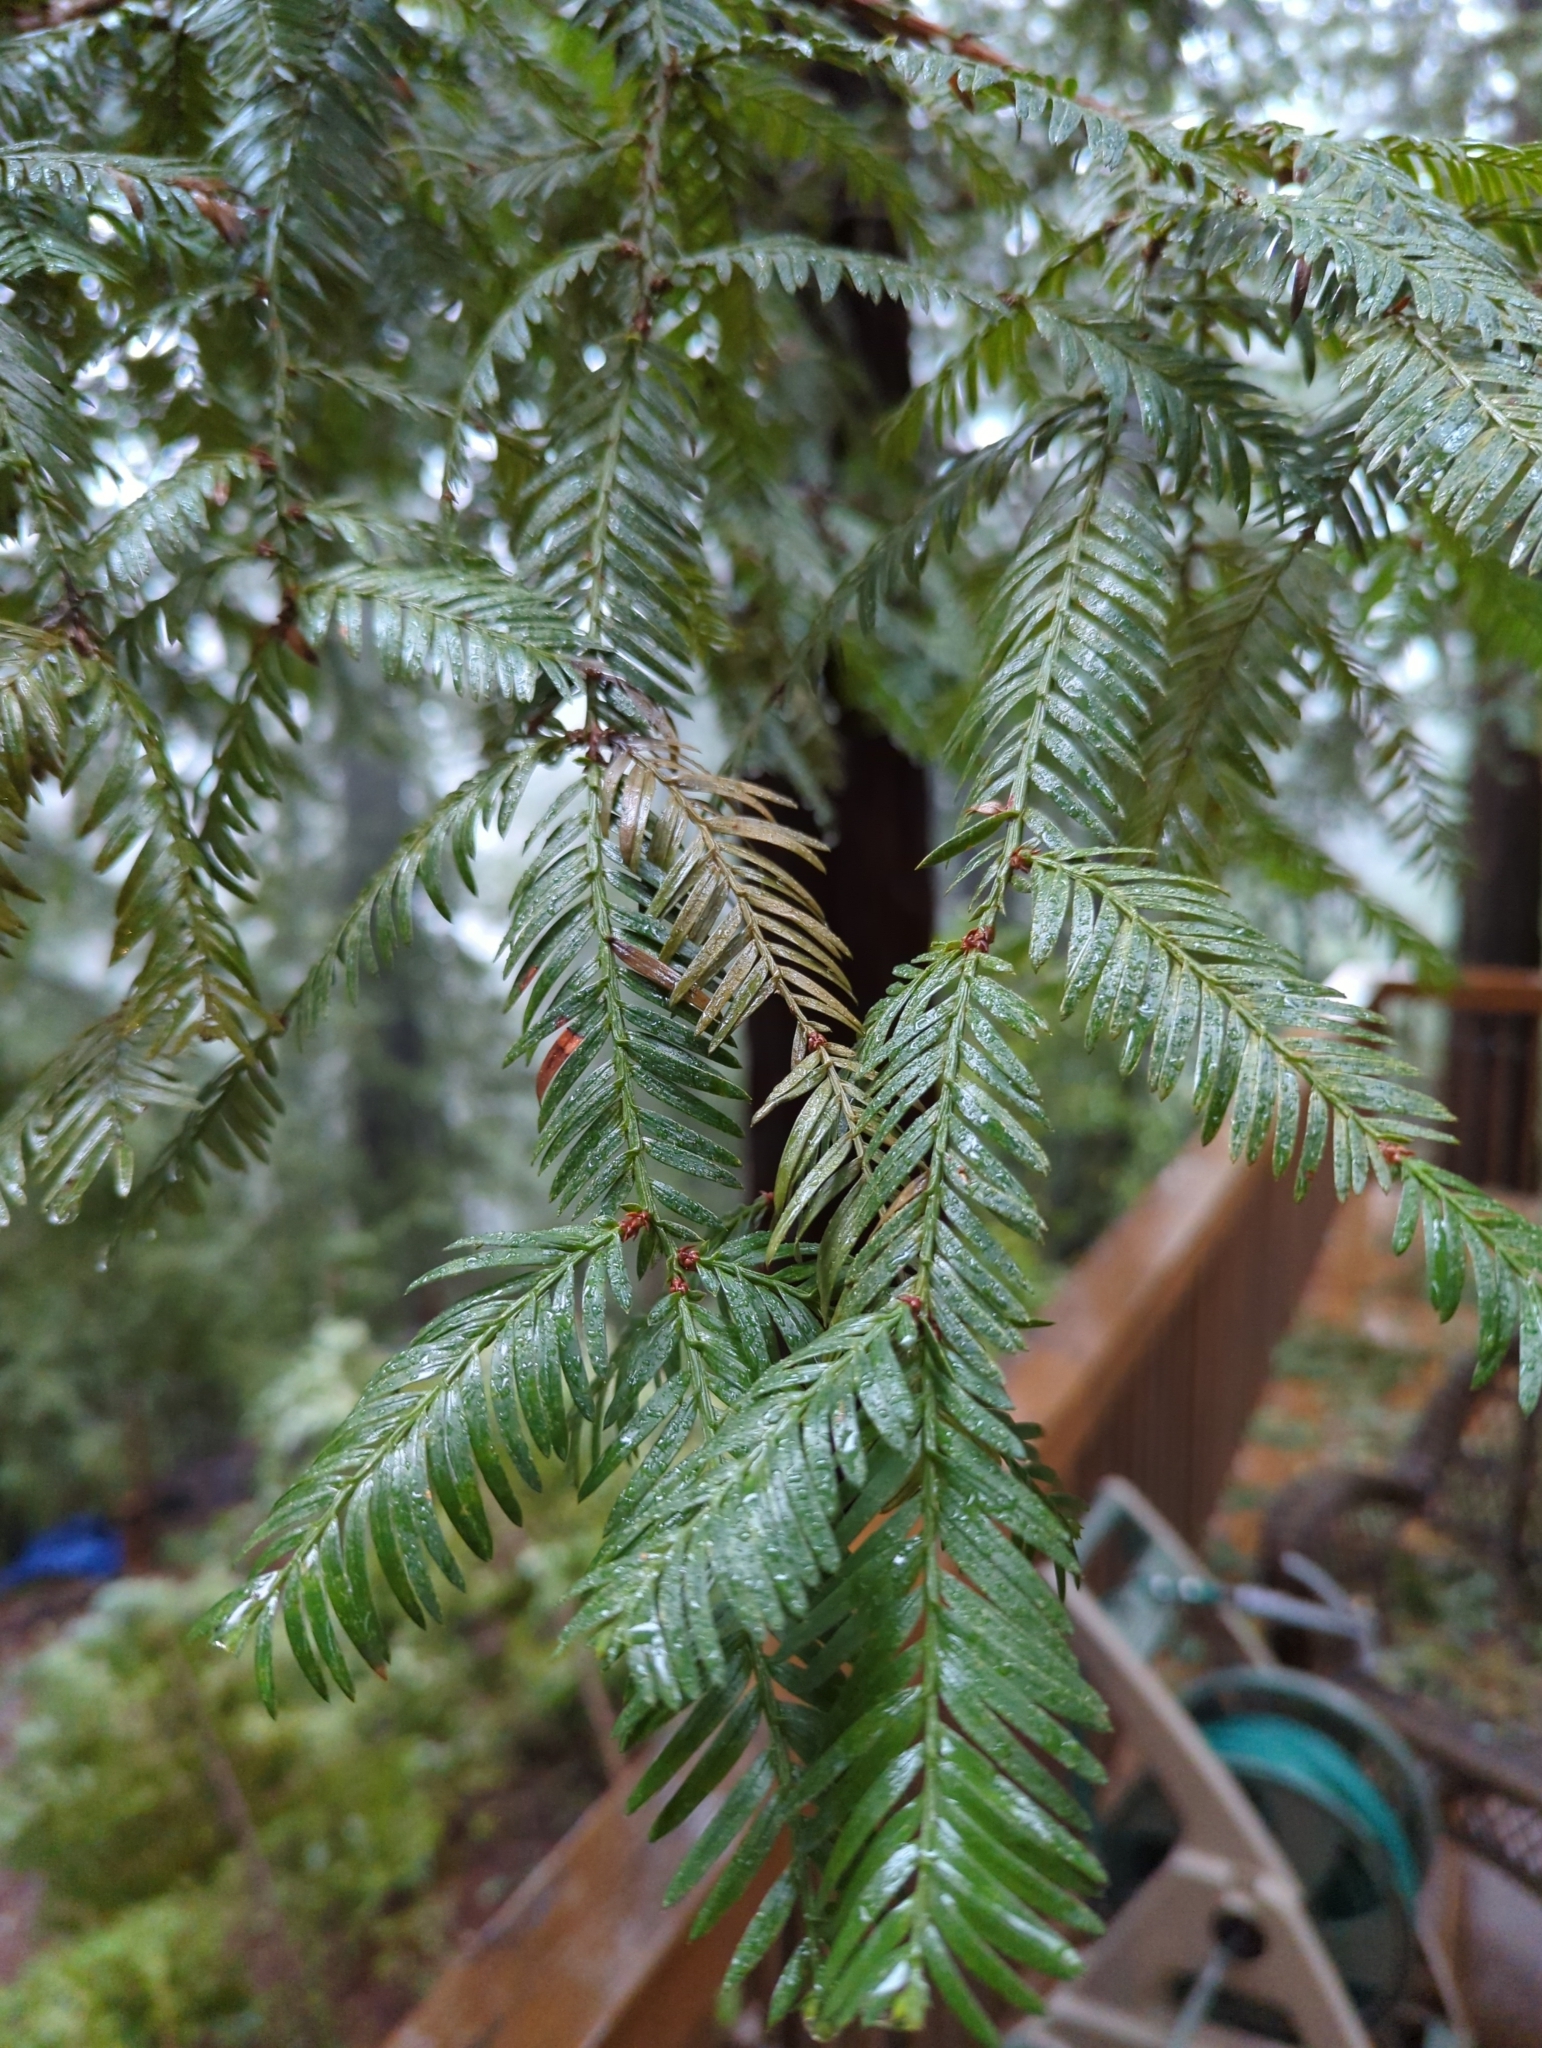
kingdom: Plantae
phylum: Tracheophyta
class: Pinopsida
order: Pinales
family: Cupressaceae
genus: Sequoia
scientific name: Sequoia sempervirens
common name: Coast redwood
